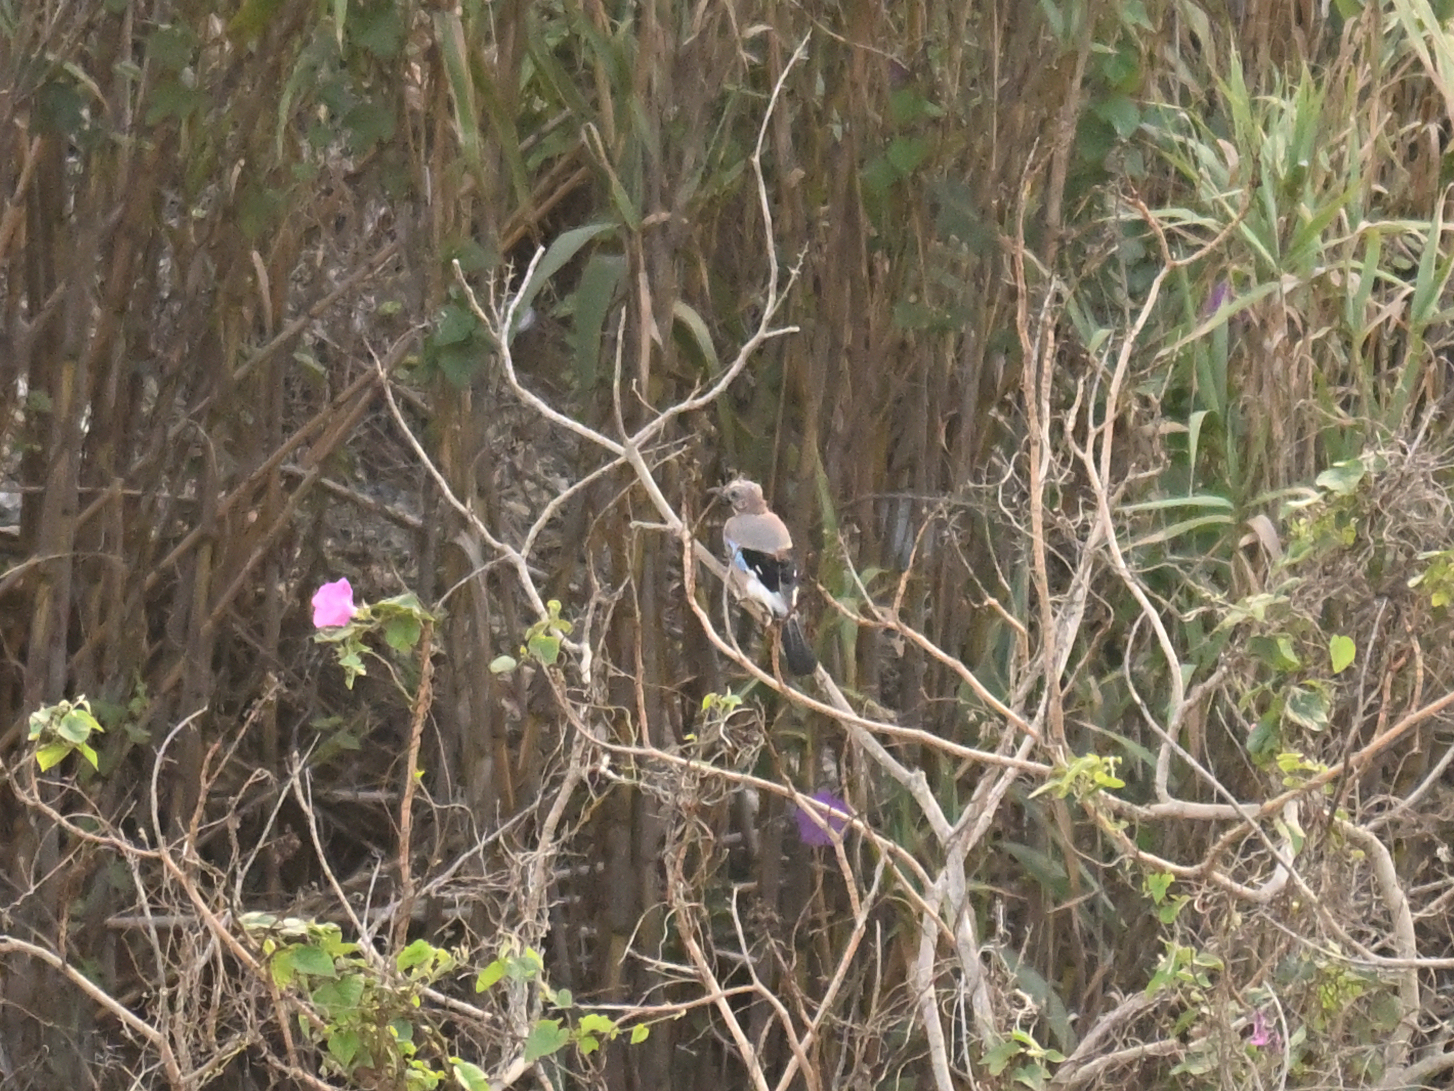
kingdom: Animalia
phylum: Chordata
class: Aves
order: Passeriformes
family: Corvidae
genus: Garrulus
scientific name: Garrulus glandarius
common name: Eurasian jay
